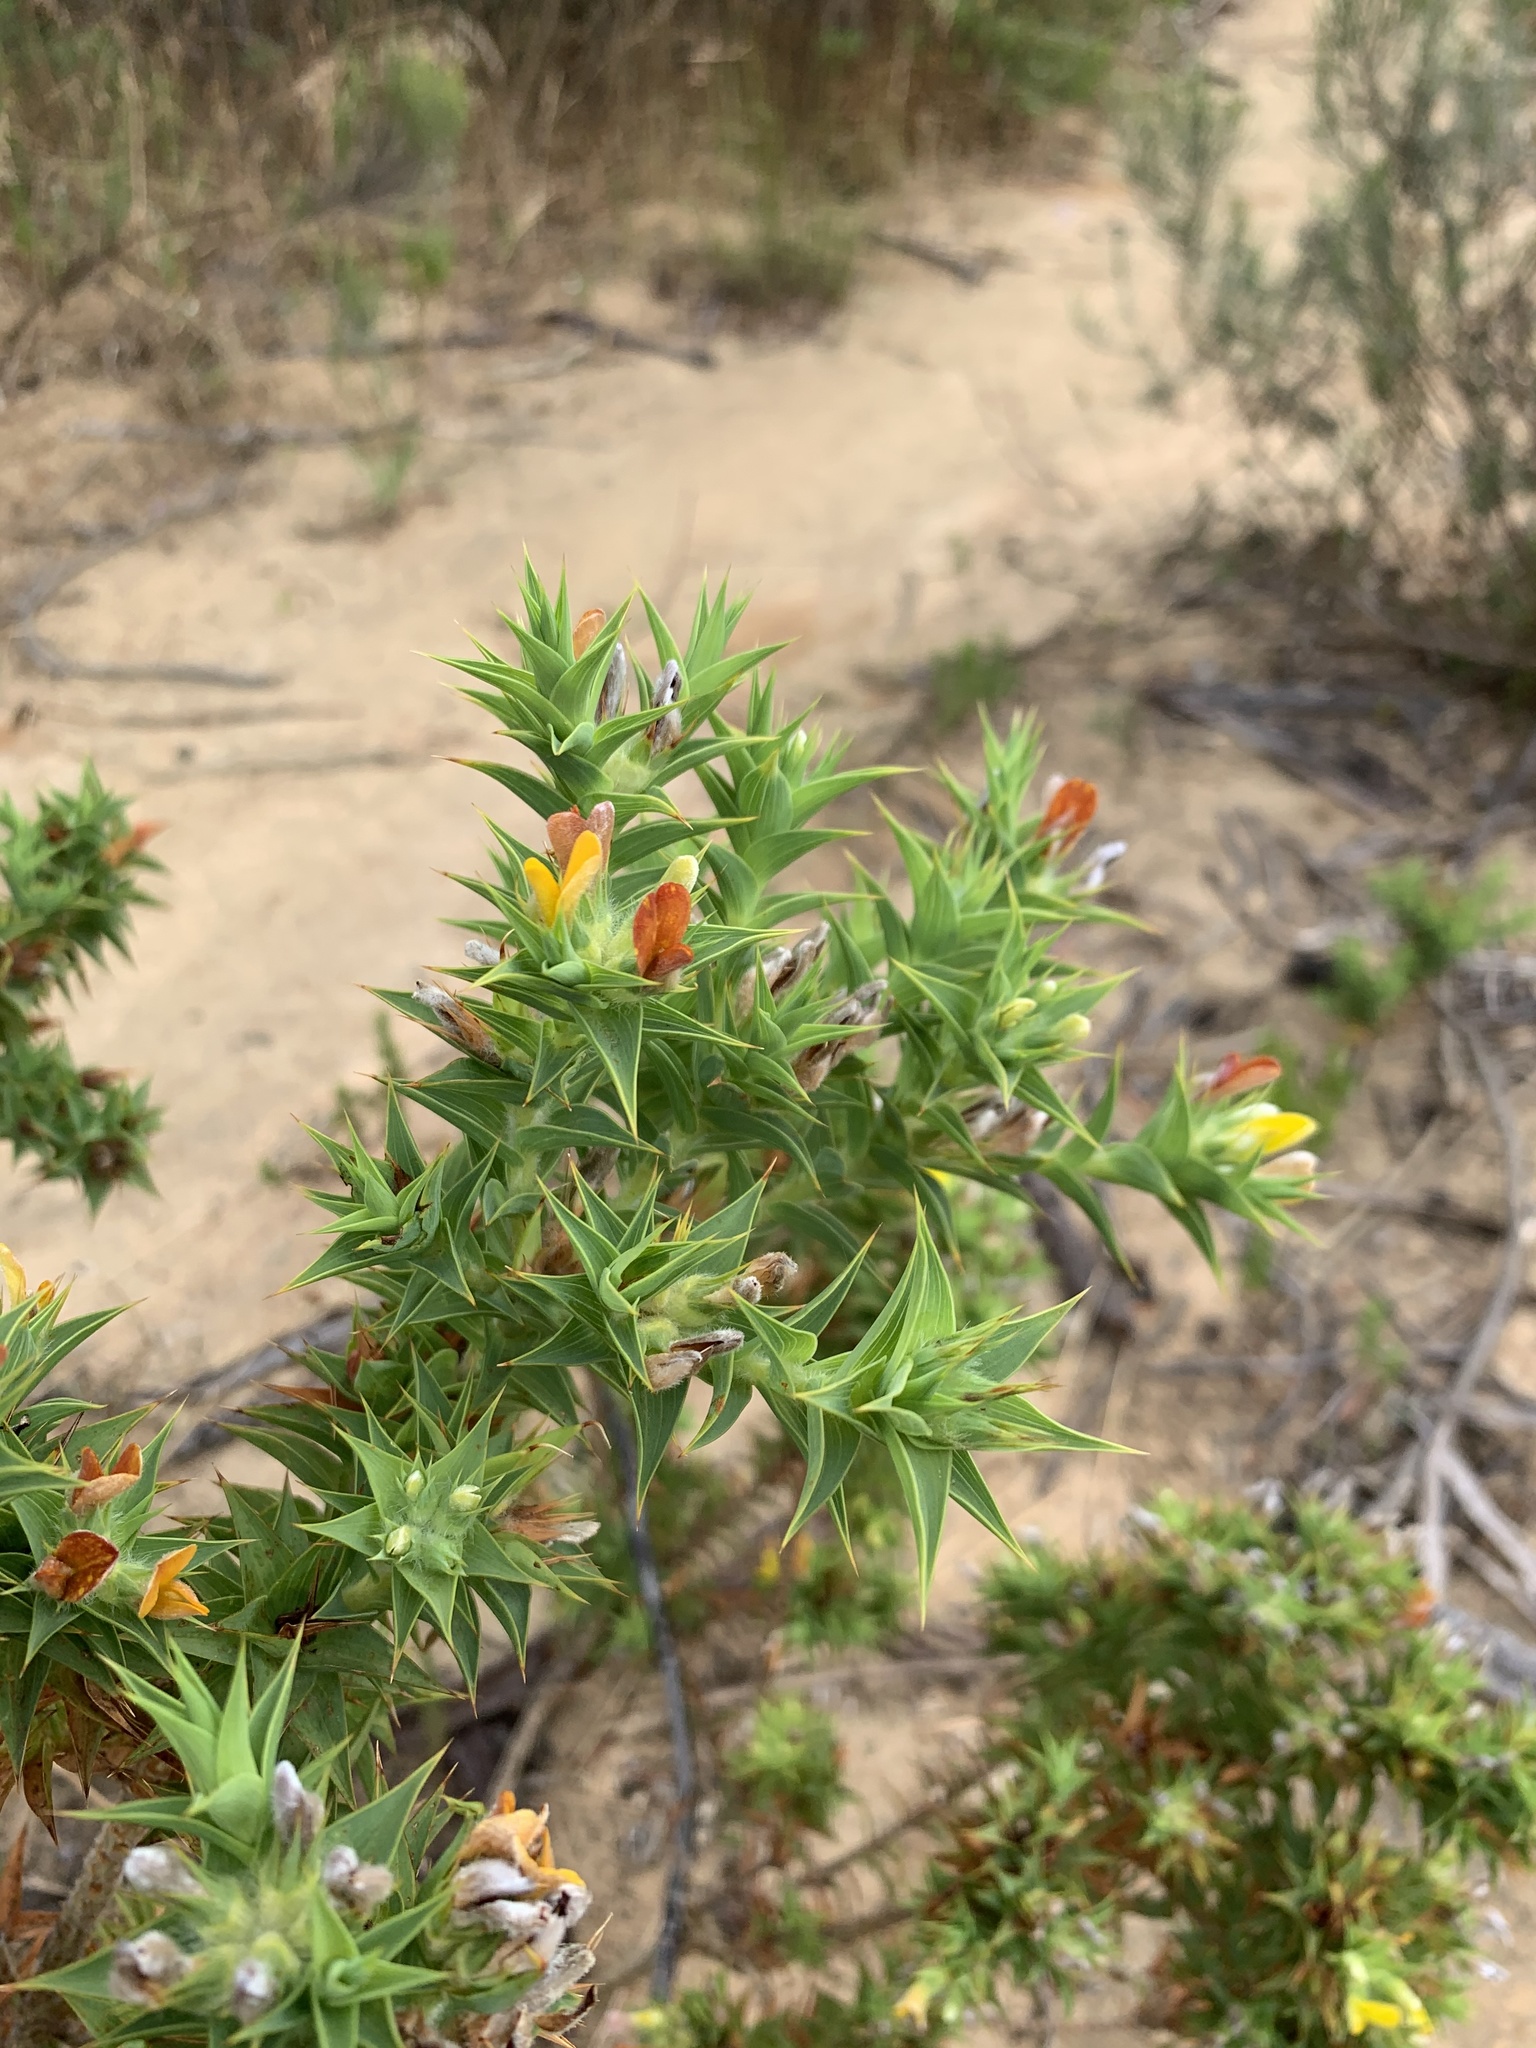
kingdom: Plantae
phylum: Tracheophyta
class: Magnoliopsida
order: Fabales
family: Fabaceae
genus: Aspalathus
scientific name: Aspalathus cordata
